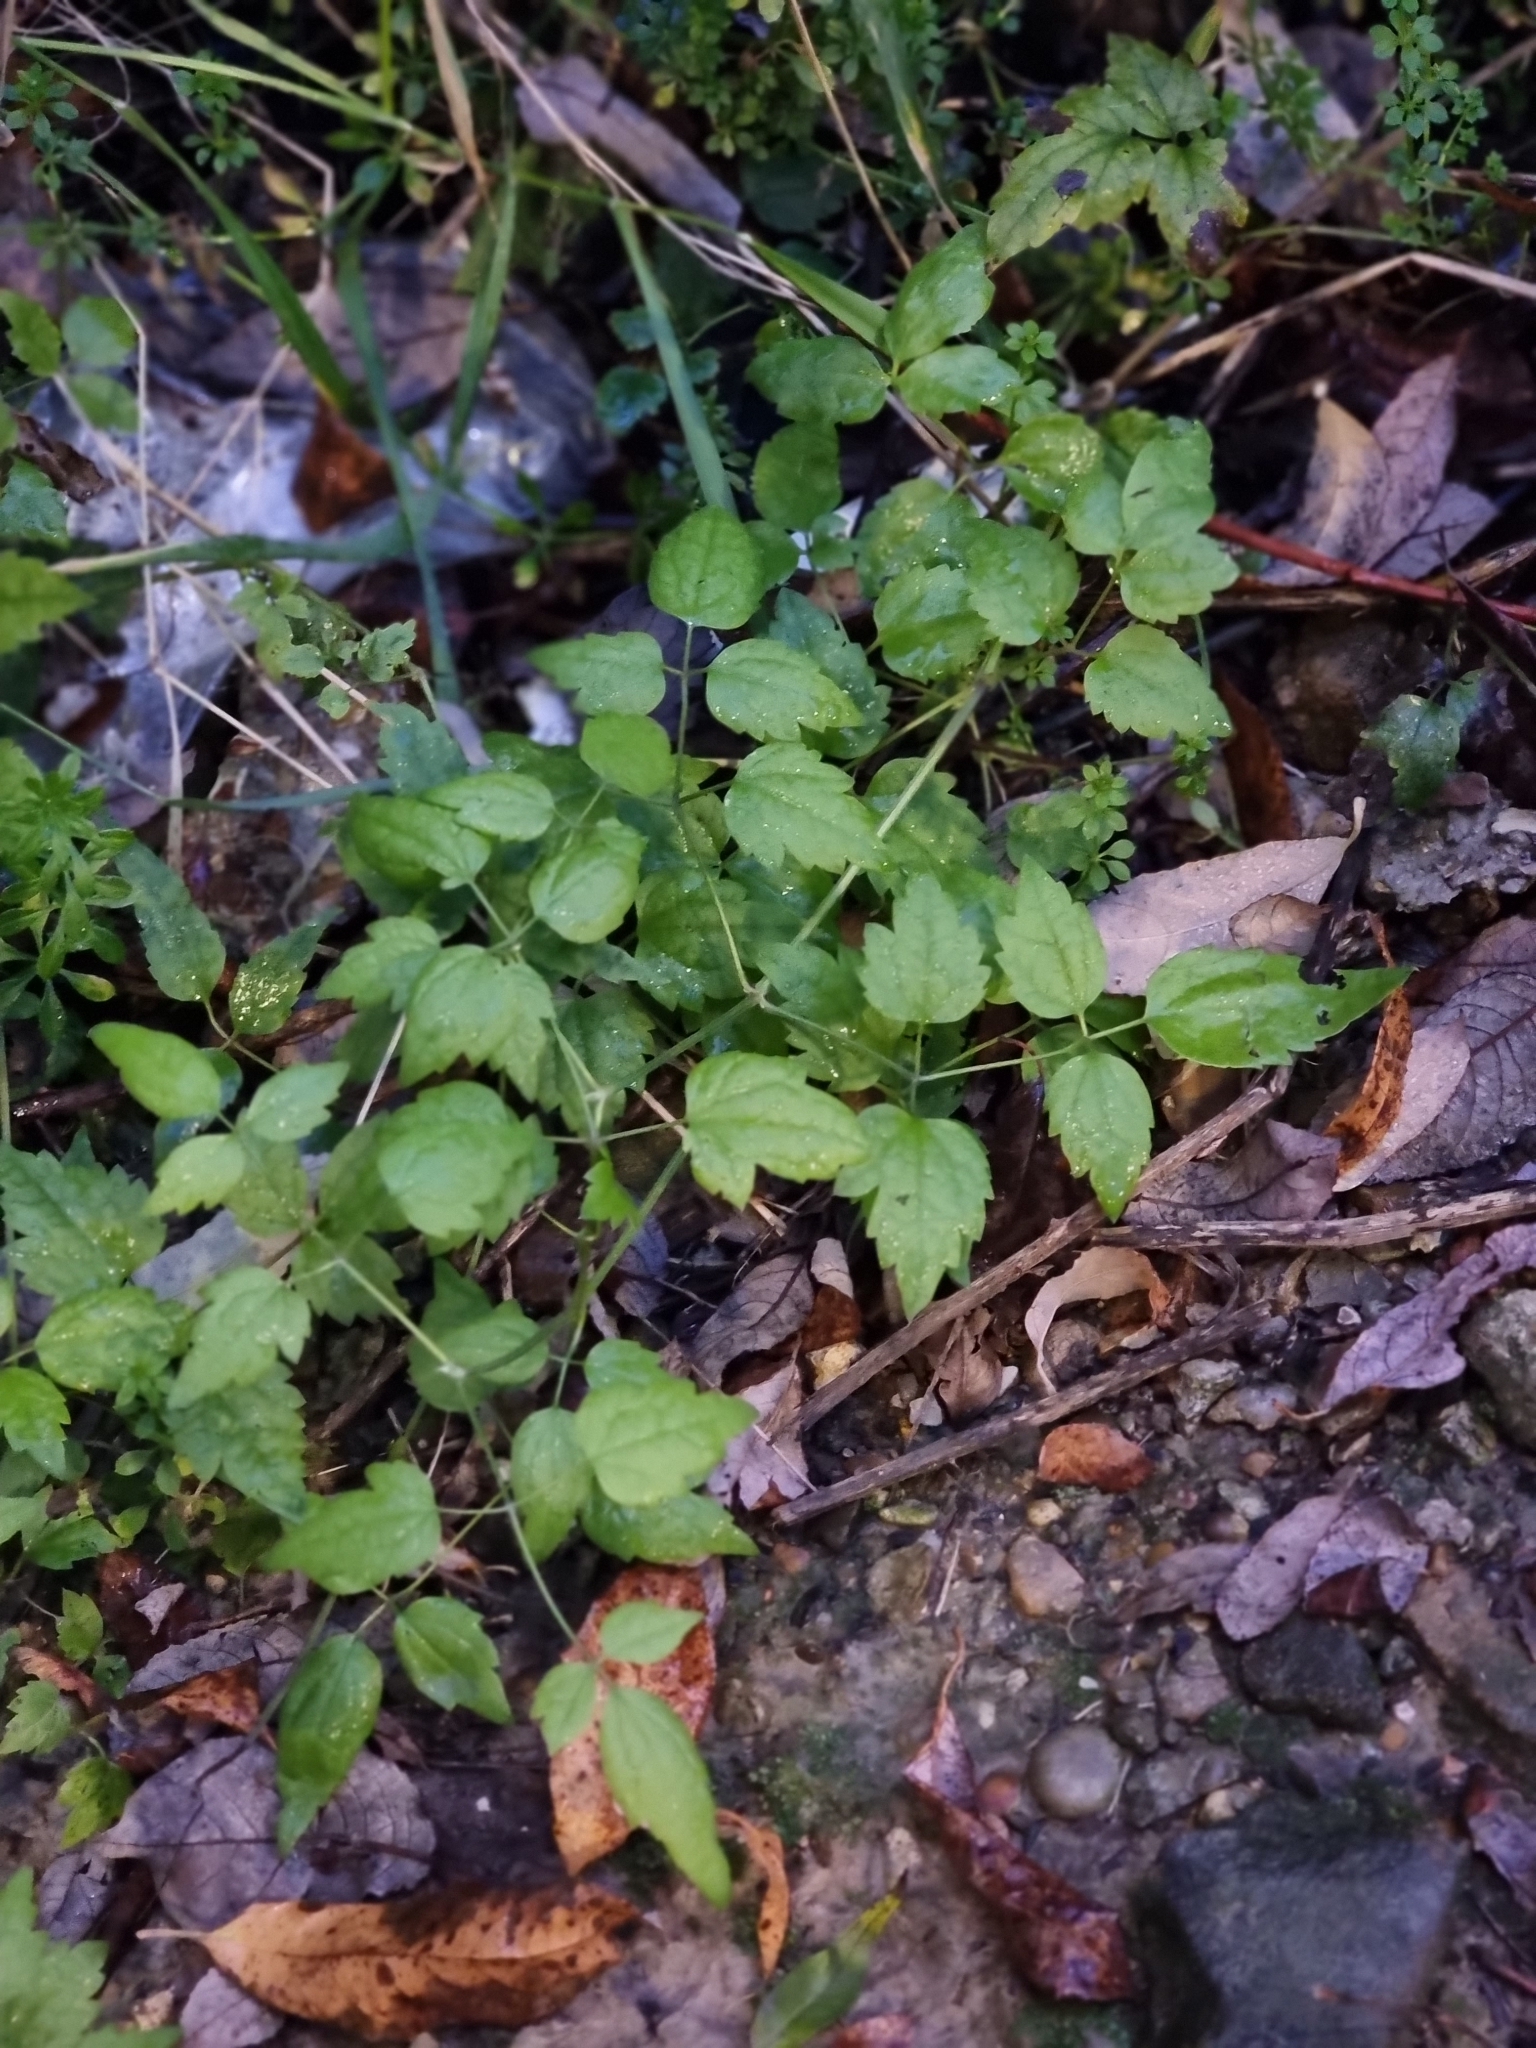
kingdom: Plantae
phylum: Tracheophyta
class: Magnoliopsida
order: Ranunculales
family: Ranunculaceae
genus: Clematis
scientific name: Clematis vitalba
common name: Evergreen clematis
